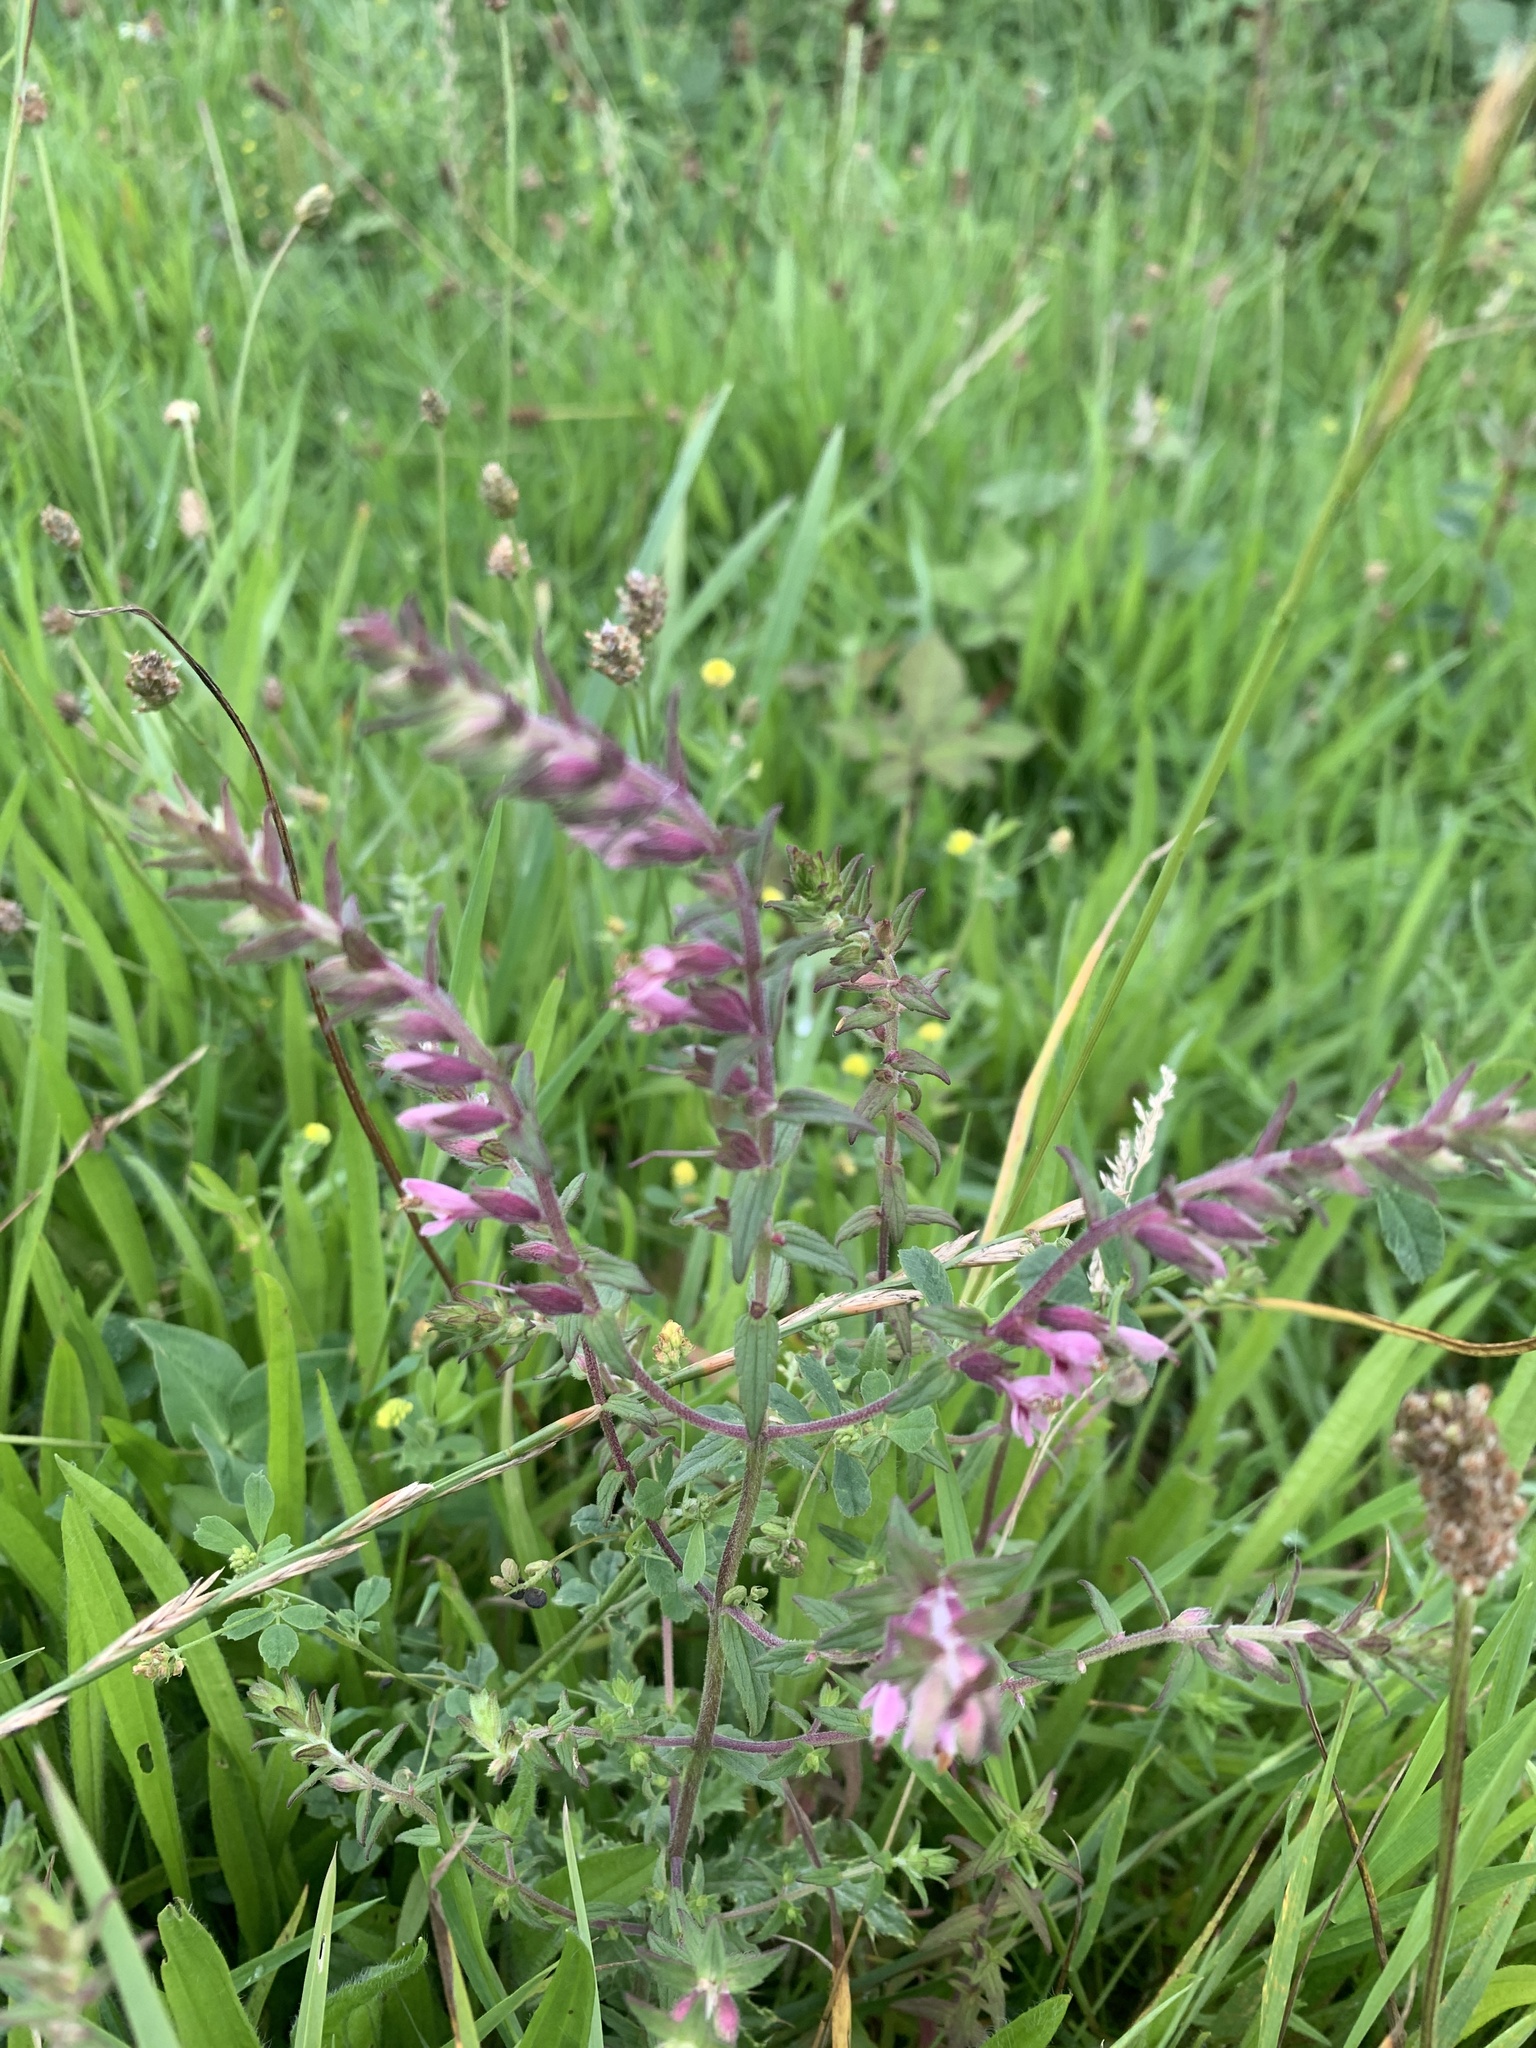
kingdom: Plantae
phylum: Tracheophyta
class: Magnoliopsida
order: Lamiales
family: Orobanchaceae
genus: Odontites
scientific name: Odontites vernus
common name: Red bartsia
